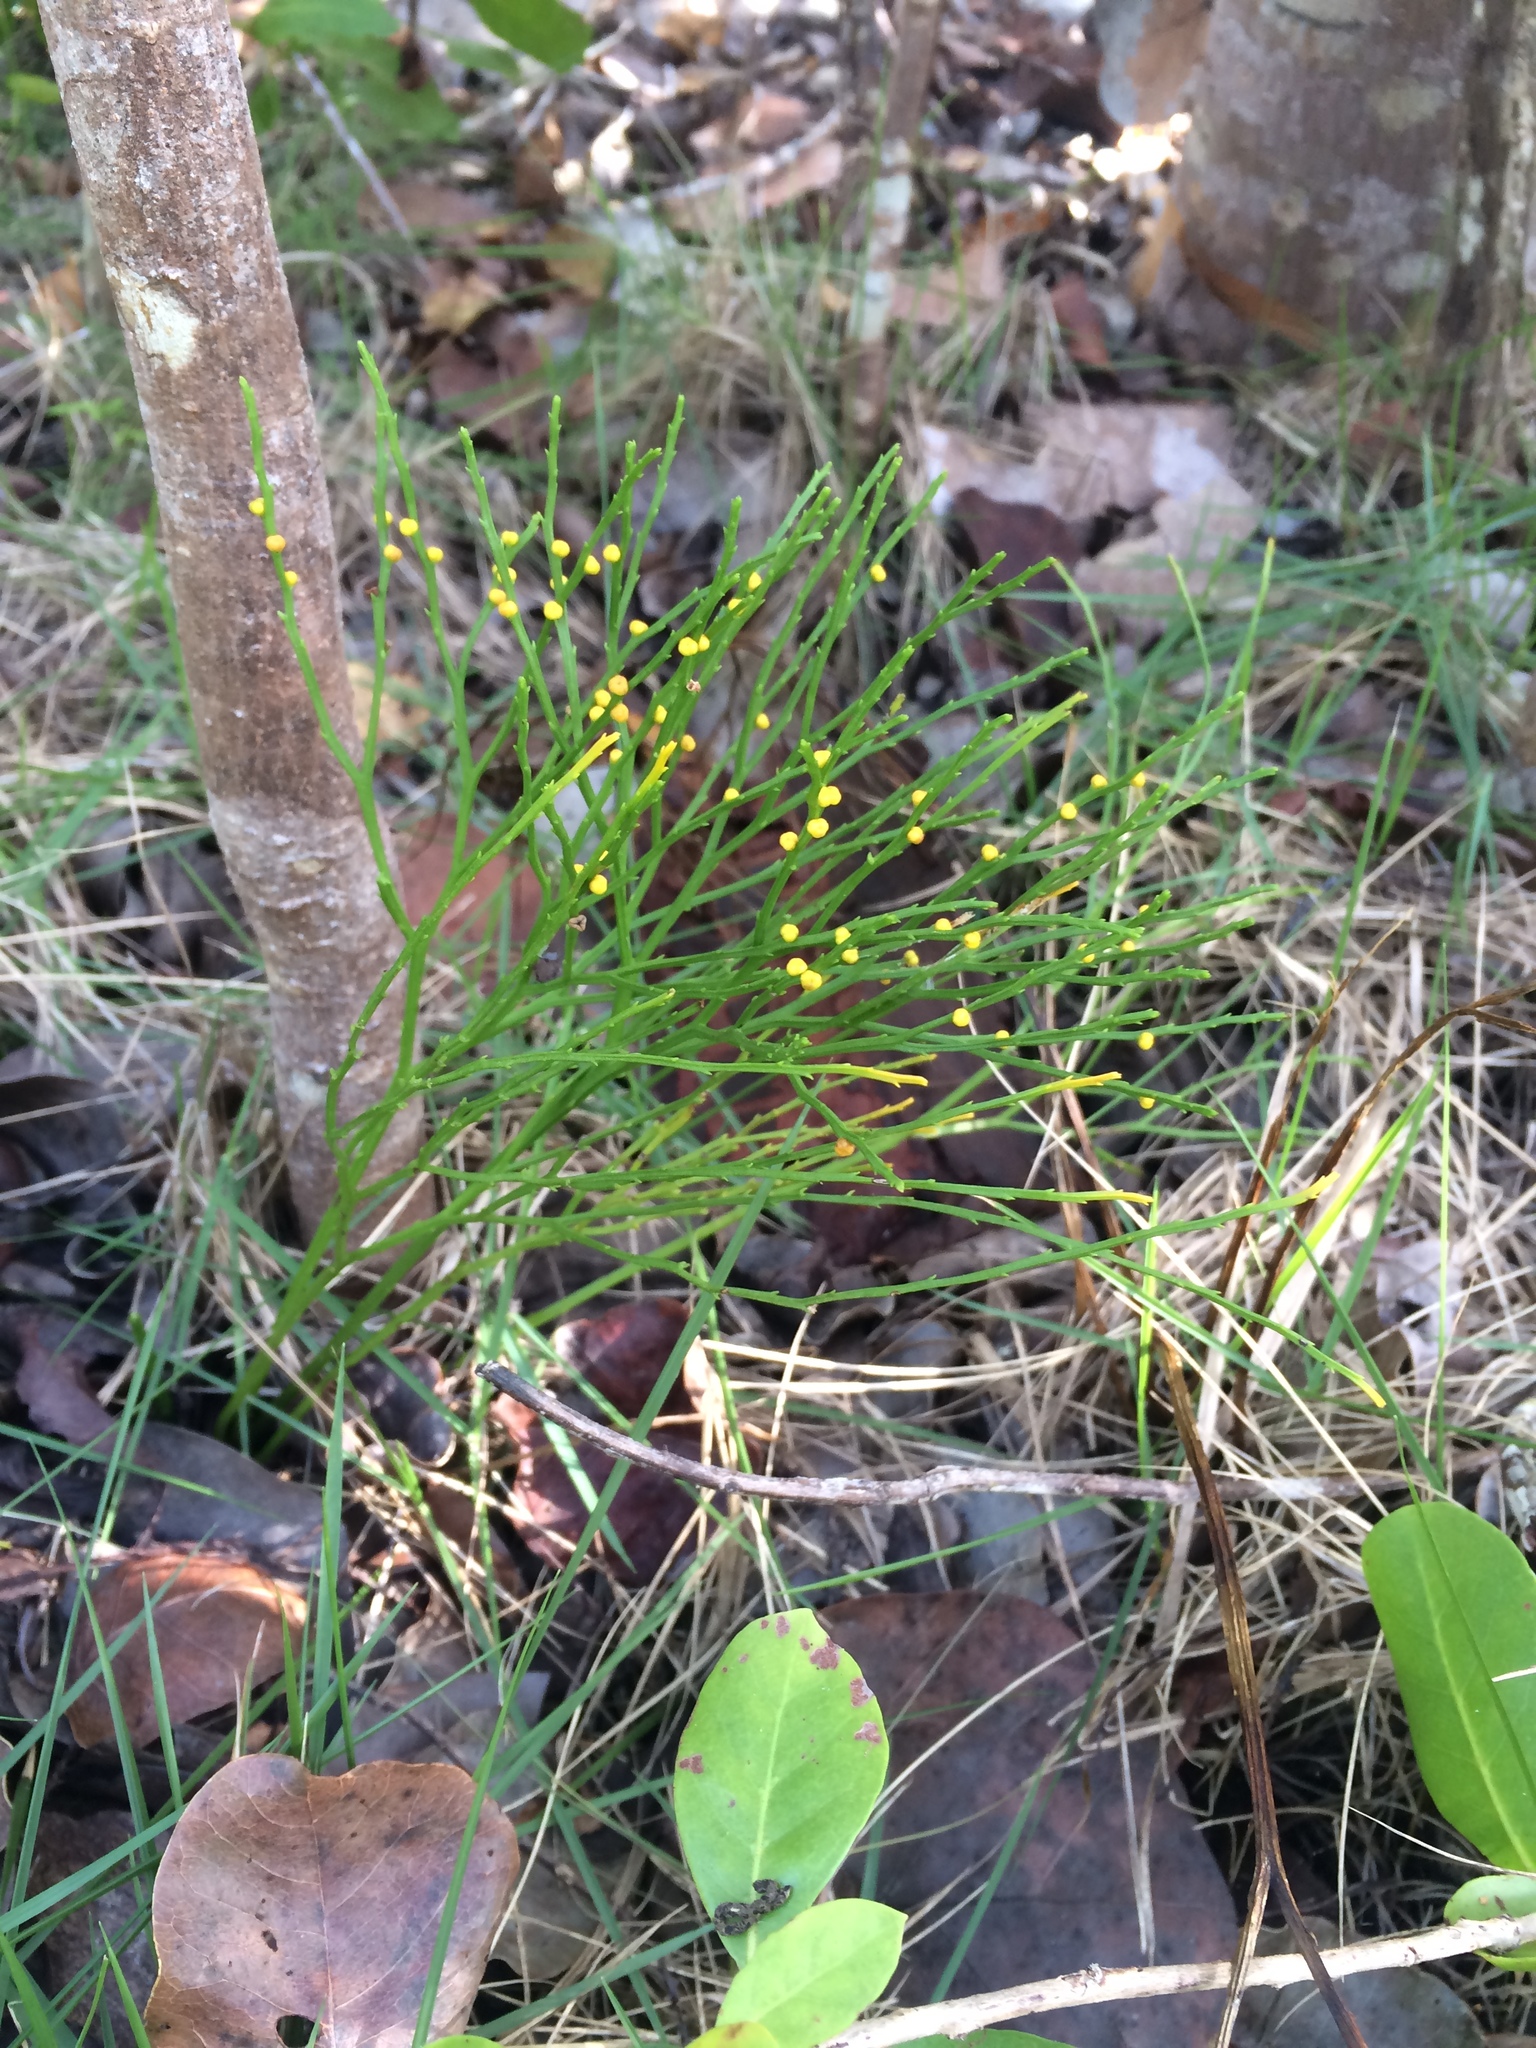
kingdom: Plantae
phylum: Tracheophyta
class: Polypodiopsida
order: Psilotales
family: Psilotaceae
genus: Psilotum
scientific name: Psilotum nudum
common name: Skeleton fork fern
